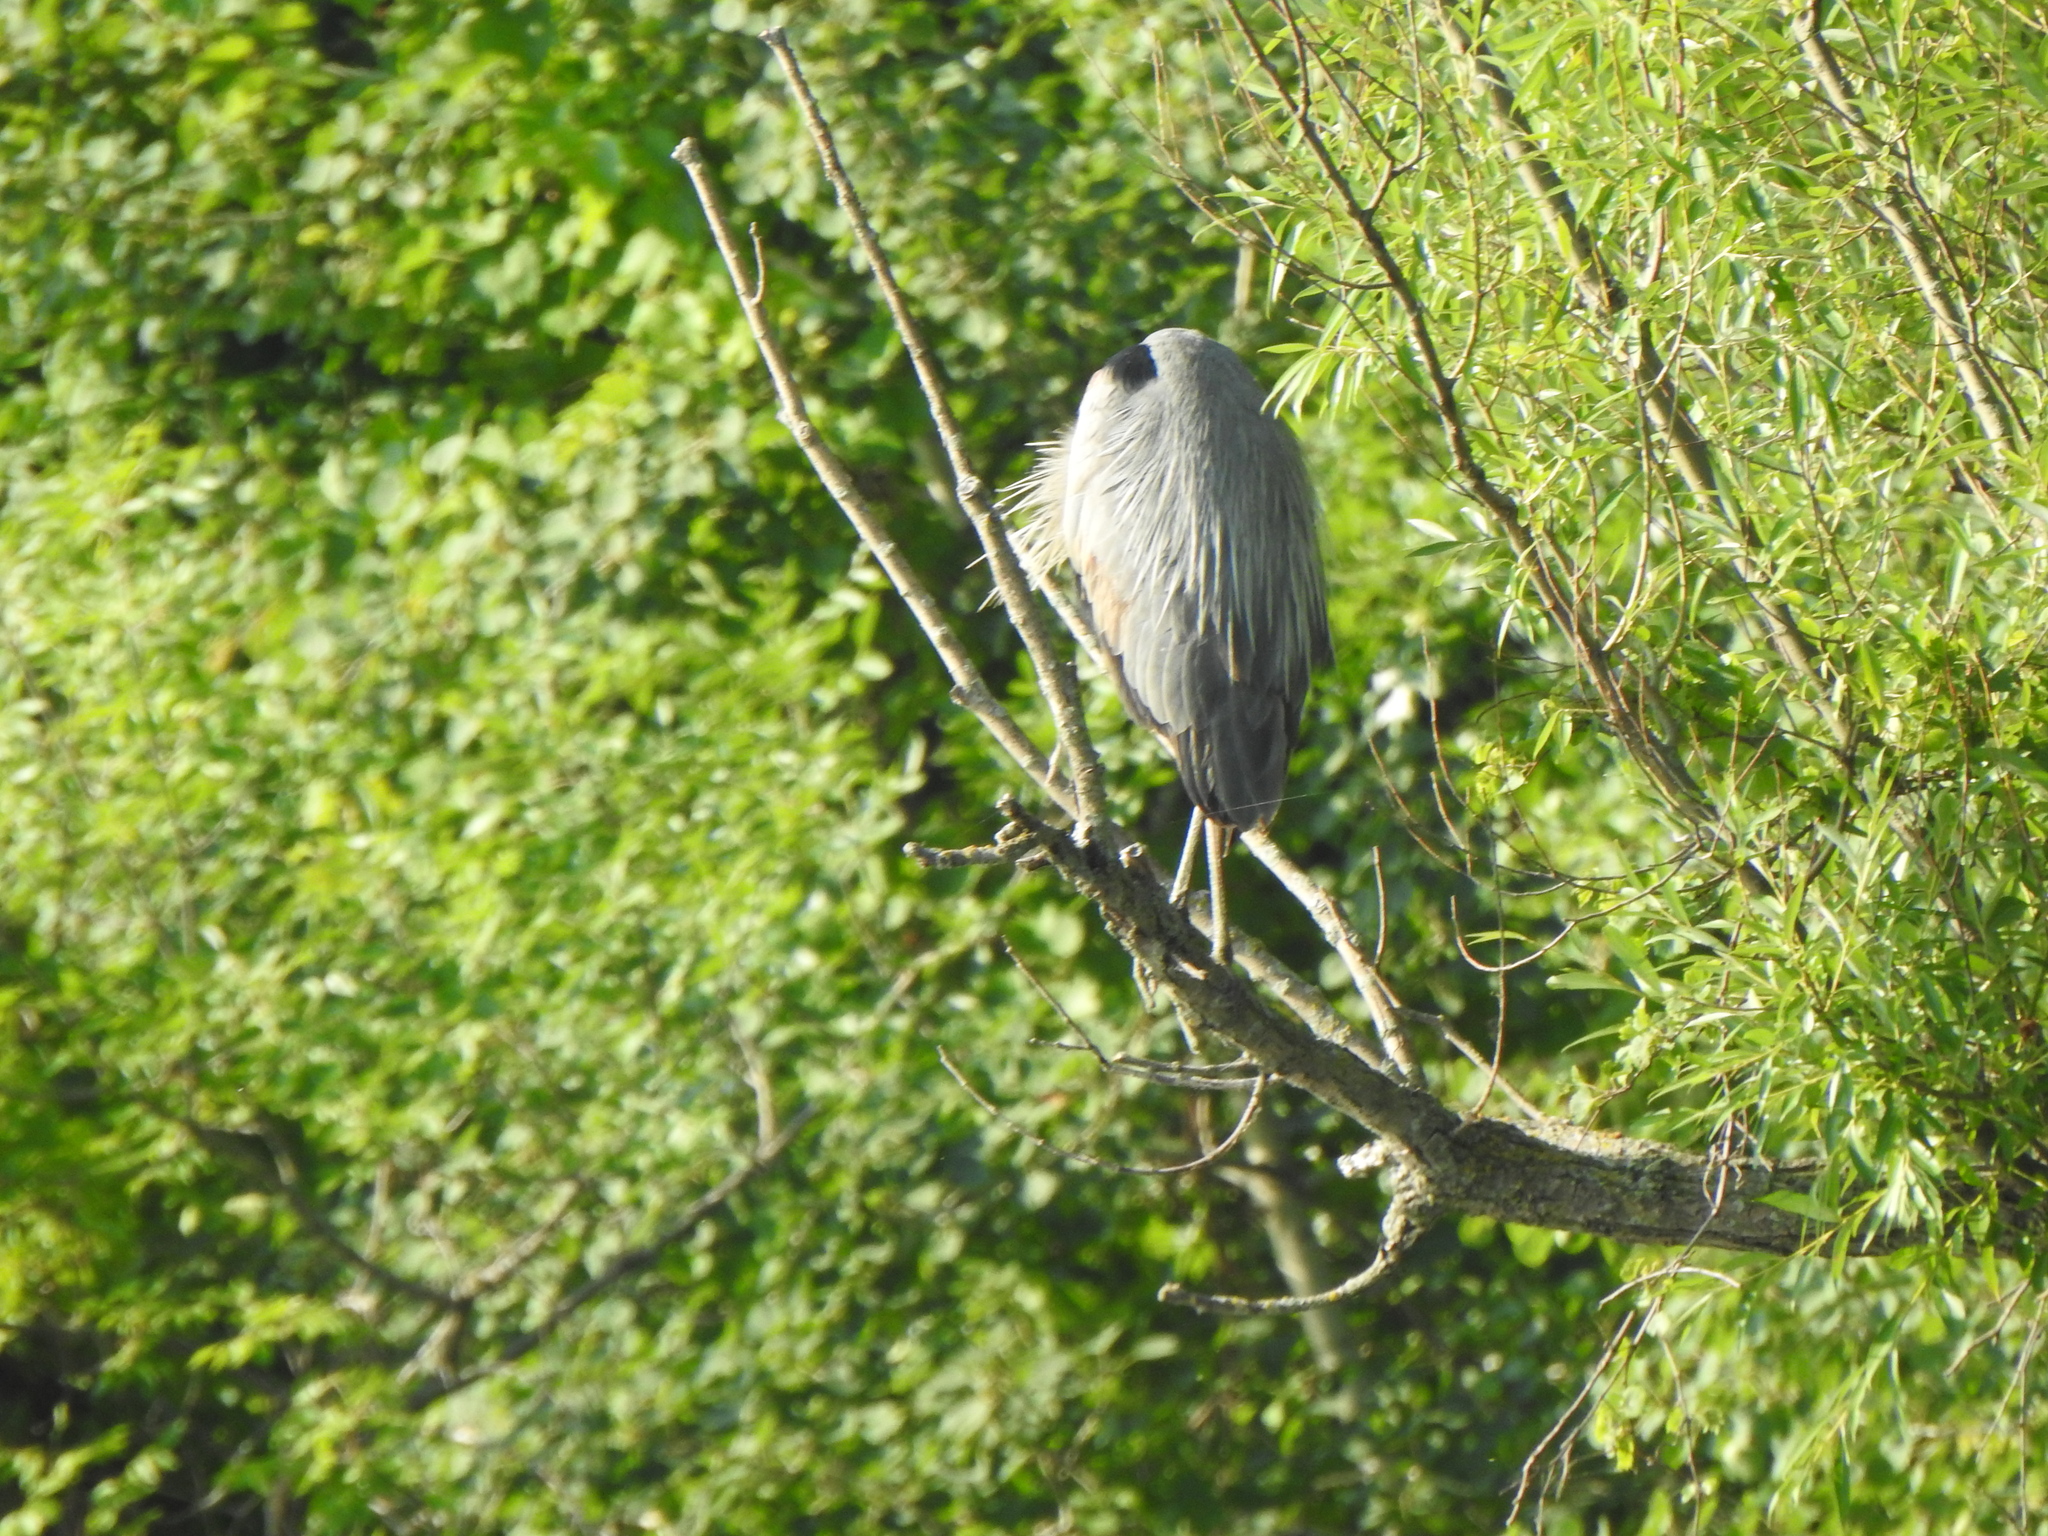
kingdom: Animalia
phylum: Chordata
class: Aves
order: Pelecaniformes
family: Ardeidae
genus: Ardea
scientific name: Ardea herodias
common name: Great blue heron
